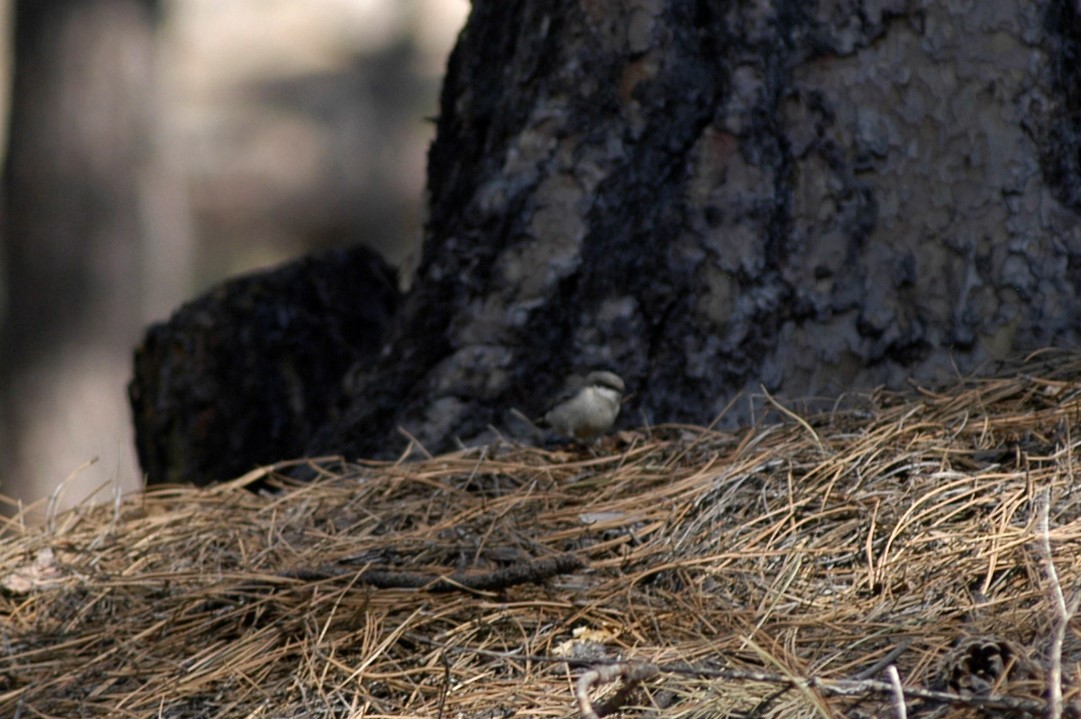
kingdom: Animalia
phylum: Chordata
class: Aves
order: Passeriformes
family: Sittidae
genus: Sitta
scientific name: Sitta pygmaea
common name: Pygmy nuthatch
